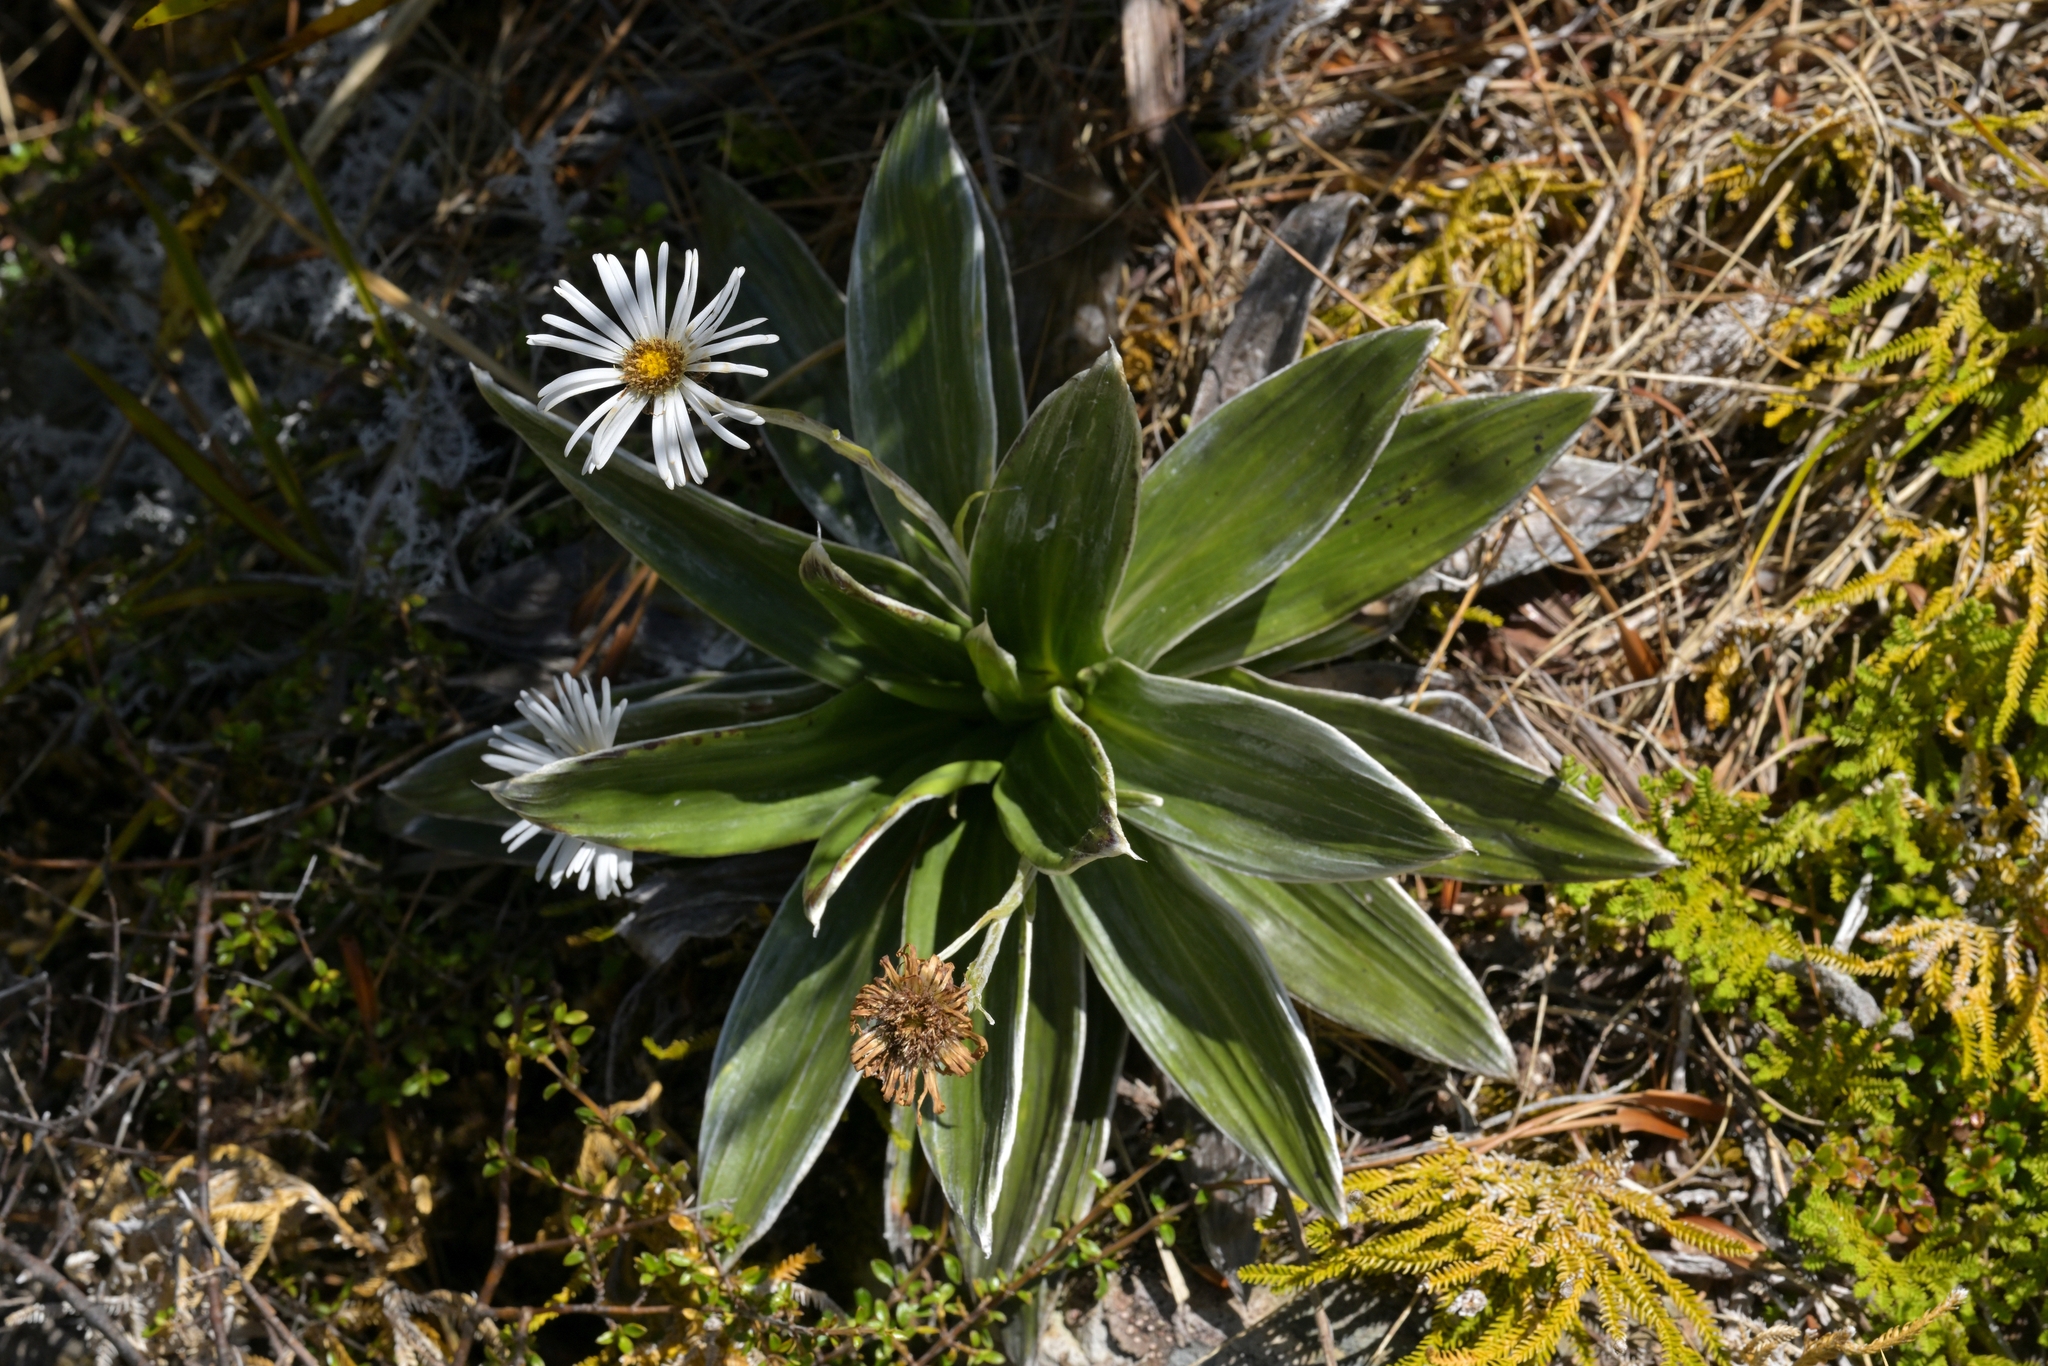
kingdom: Plantae
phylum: Tracheophyta
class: Magnoliopsida
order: Asterales
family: Asteraceae
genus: Celmisia
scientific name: Celmisia semicordata
